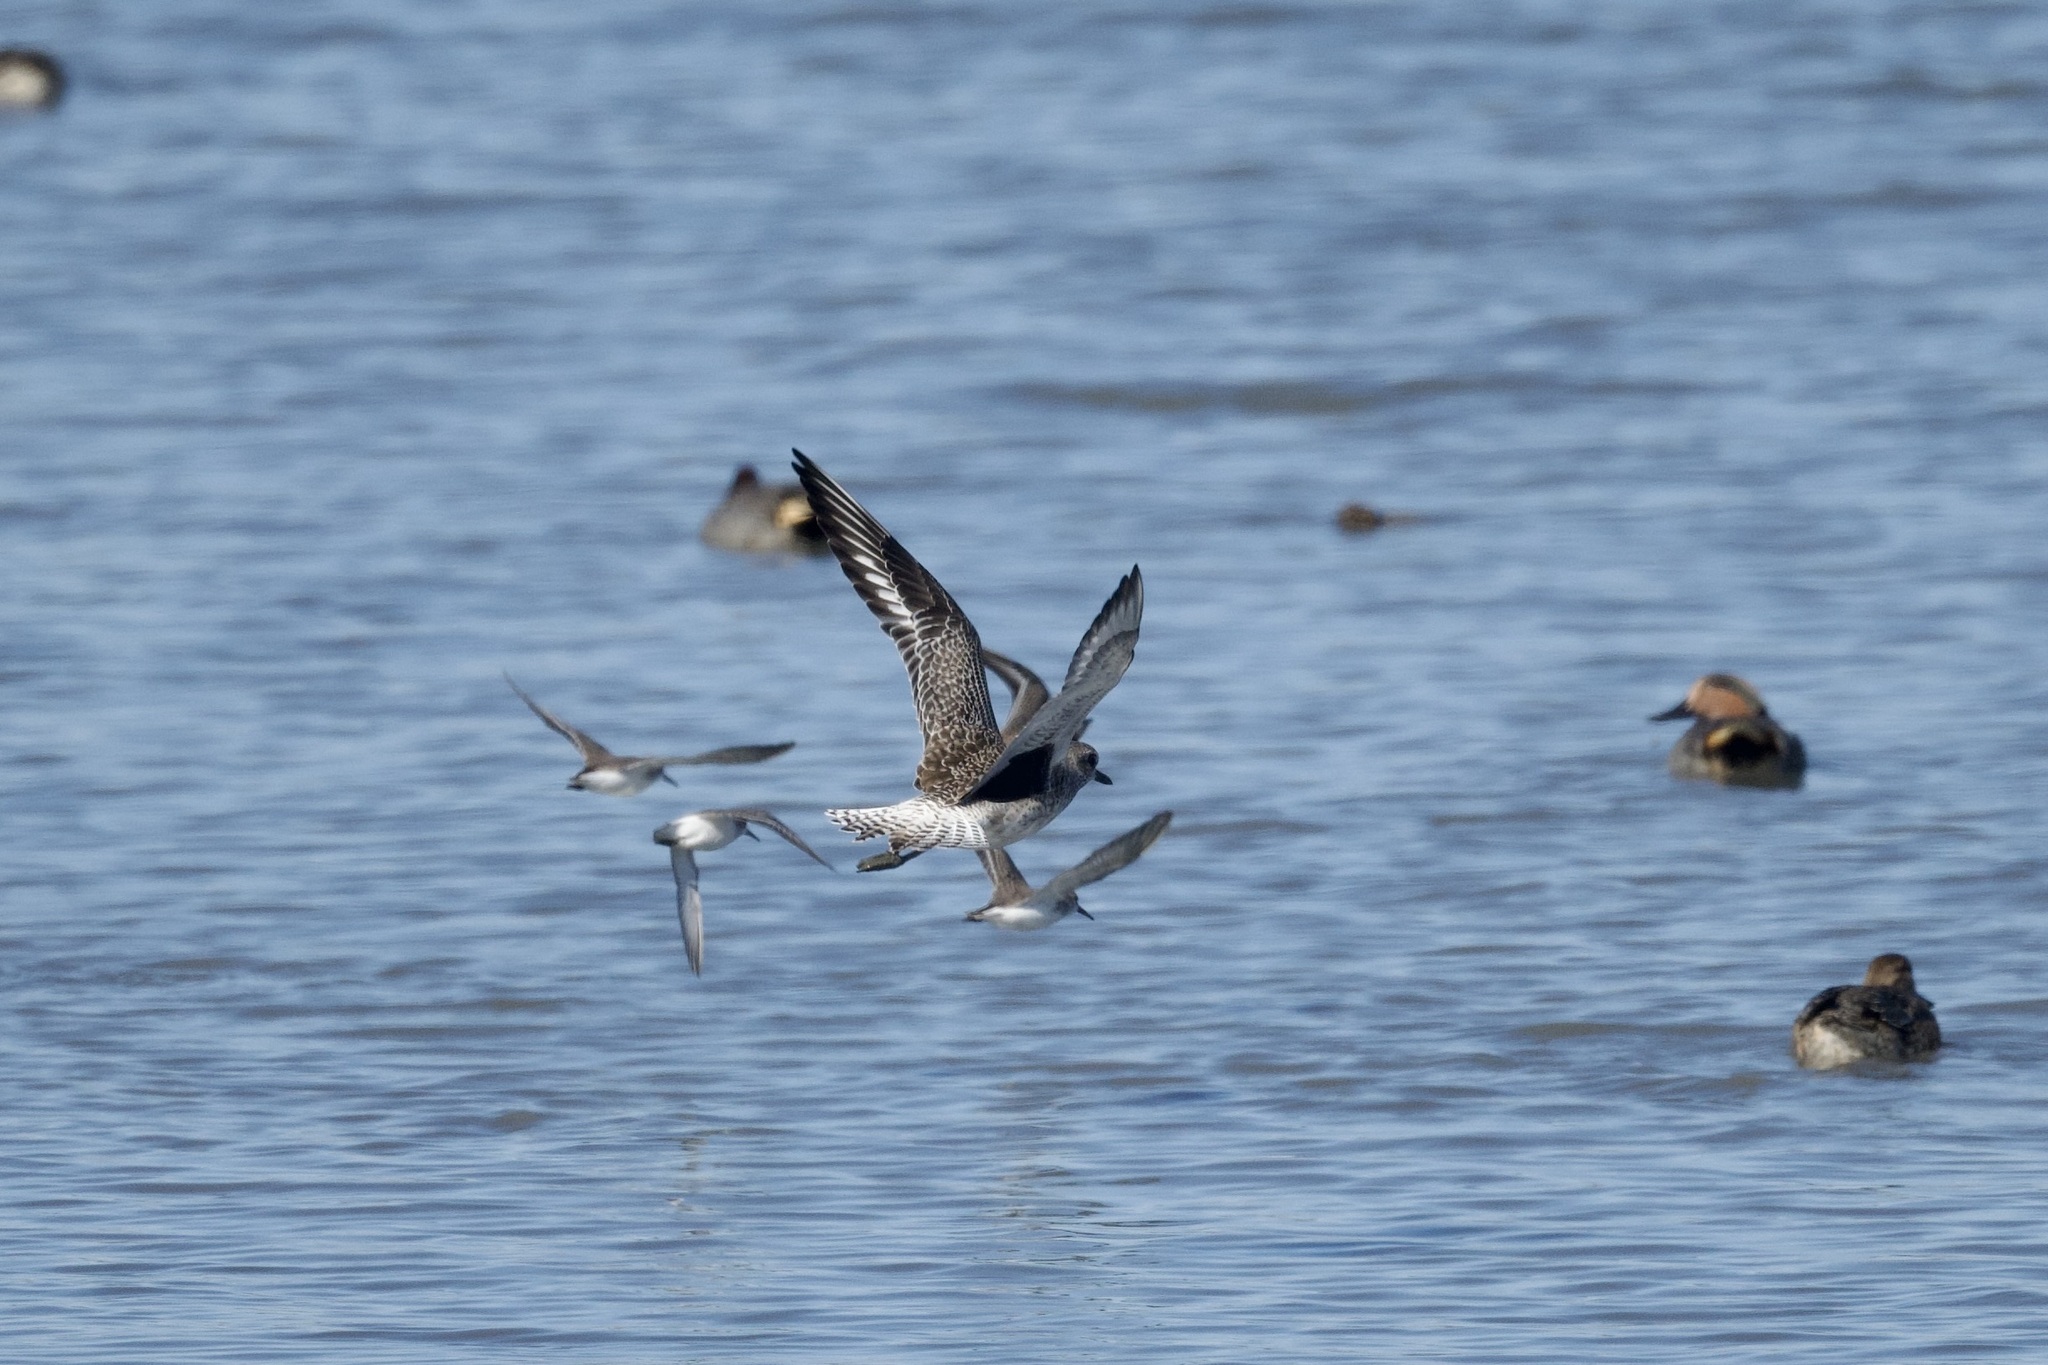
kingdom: Animalia
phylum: Chordata
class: Aves
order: Charadriiformes
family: Charadriidae
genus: Pluvialis
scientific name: Pluvialis squatarola
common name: Grey plover
